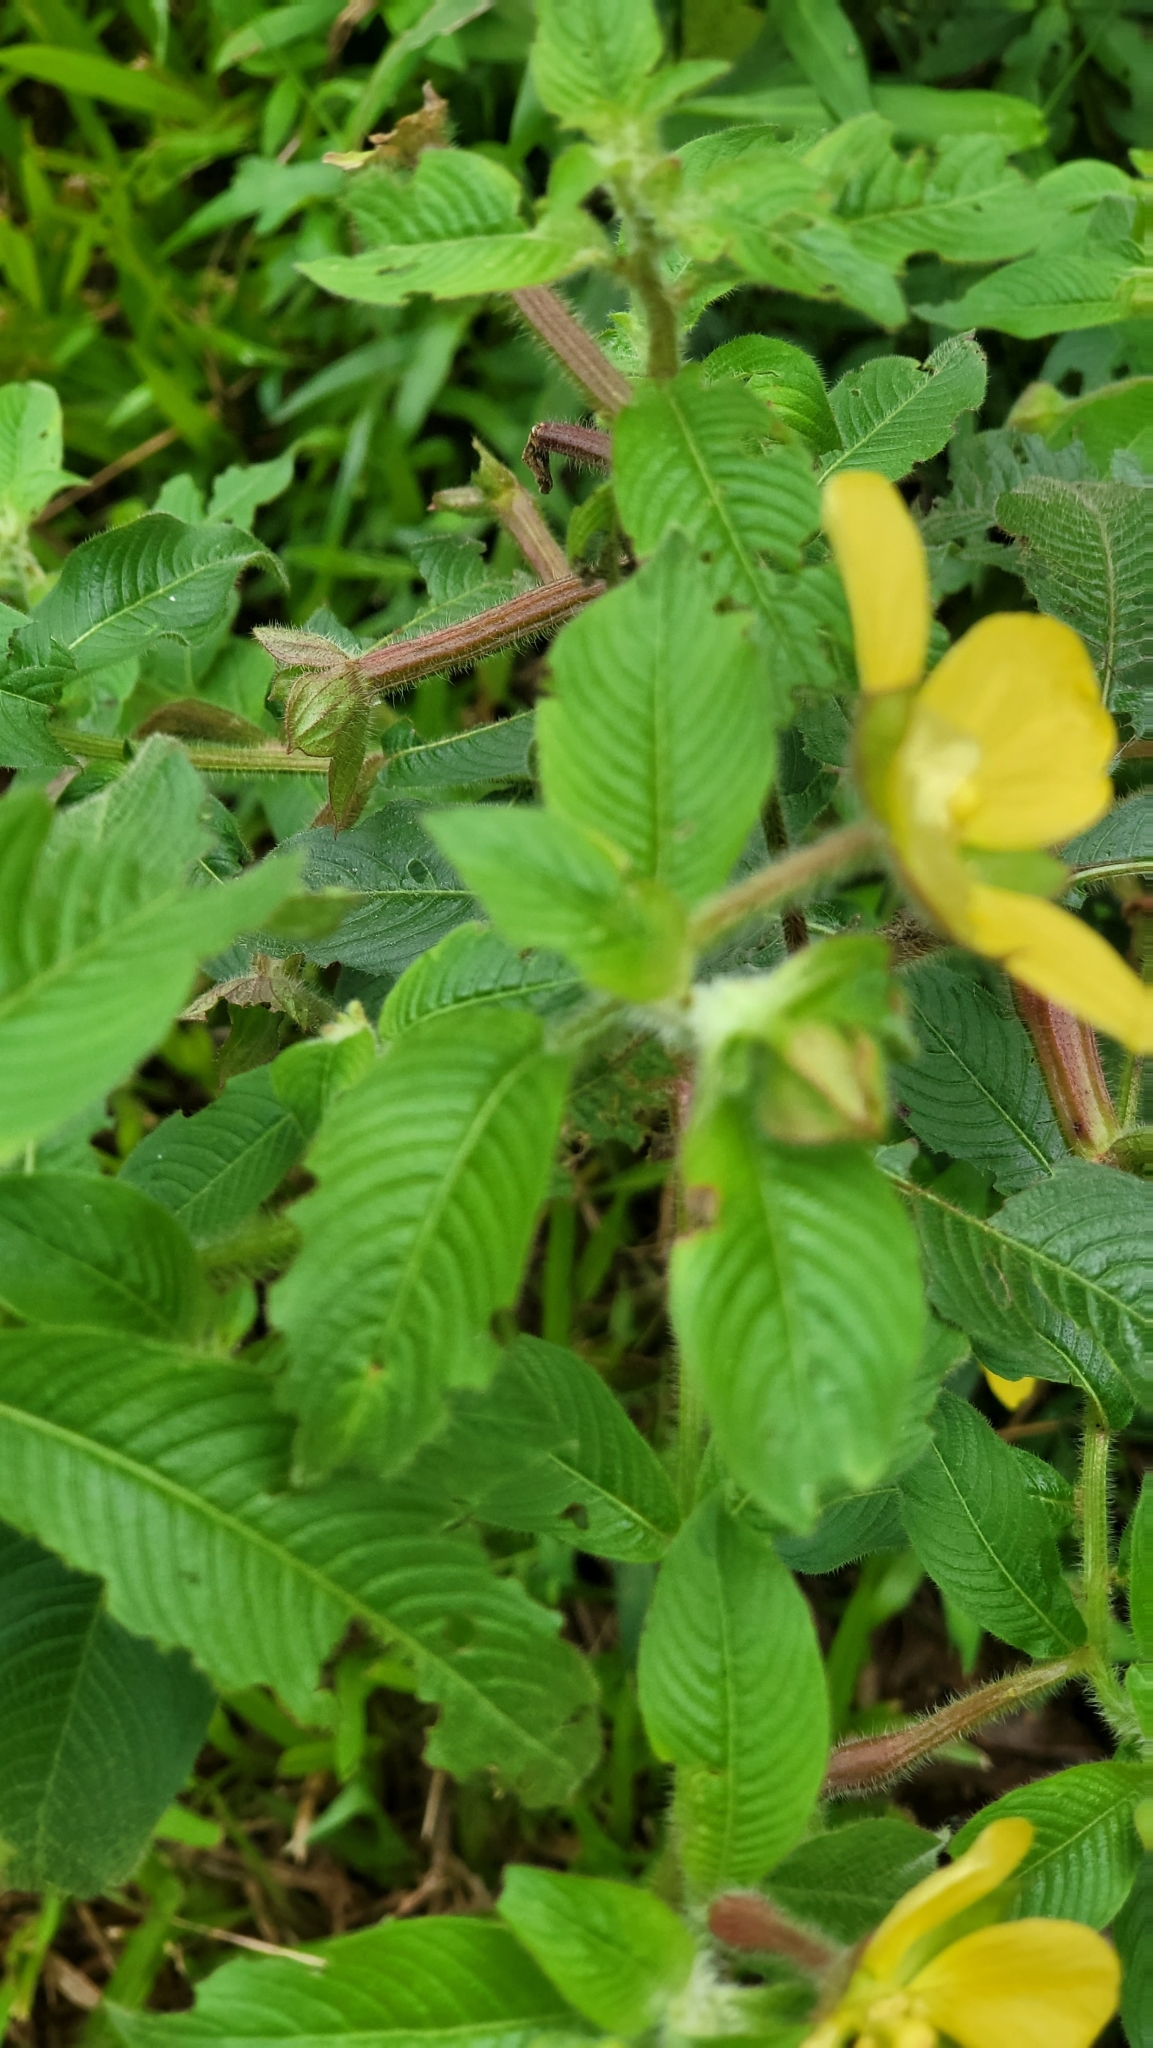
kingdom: Plantae
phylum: Tracheophyta
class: Magnoliopsida
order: Myrtales
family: Onagraceae
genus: Ludwigia
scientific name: Ludwigia octovalvis
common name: Water-primrose
